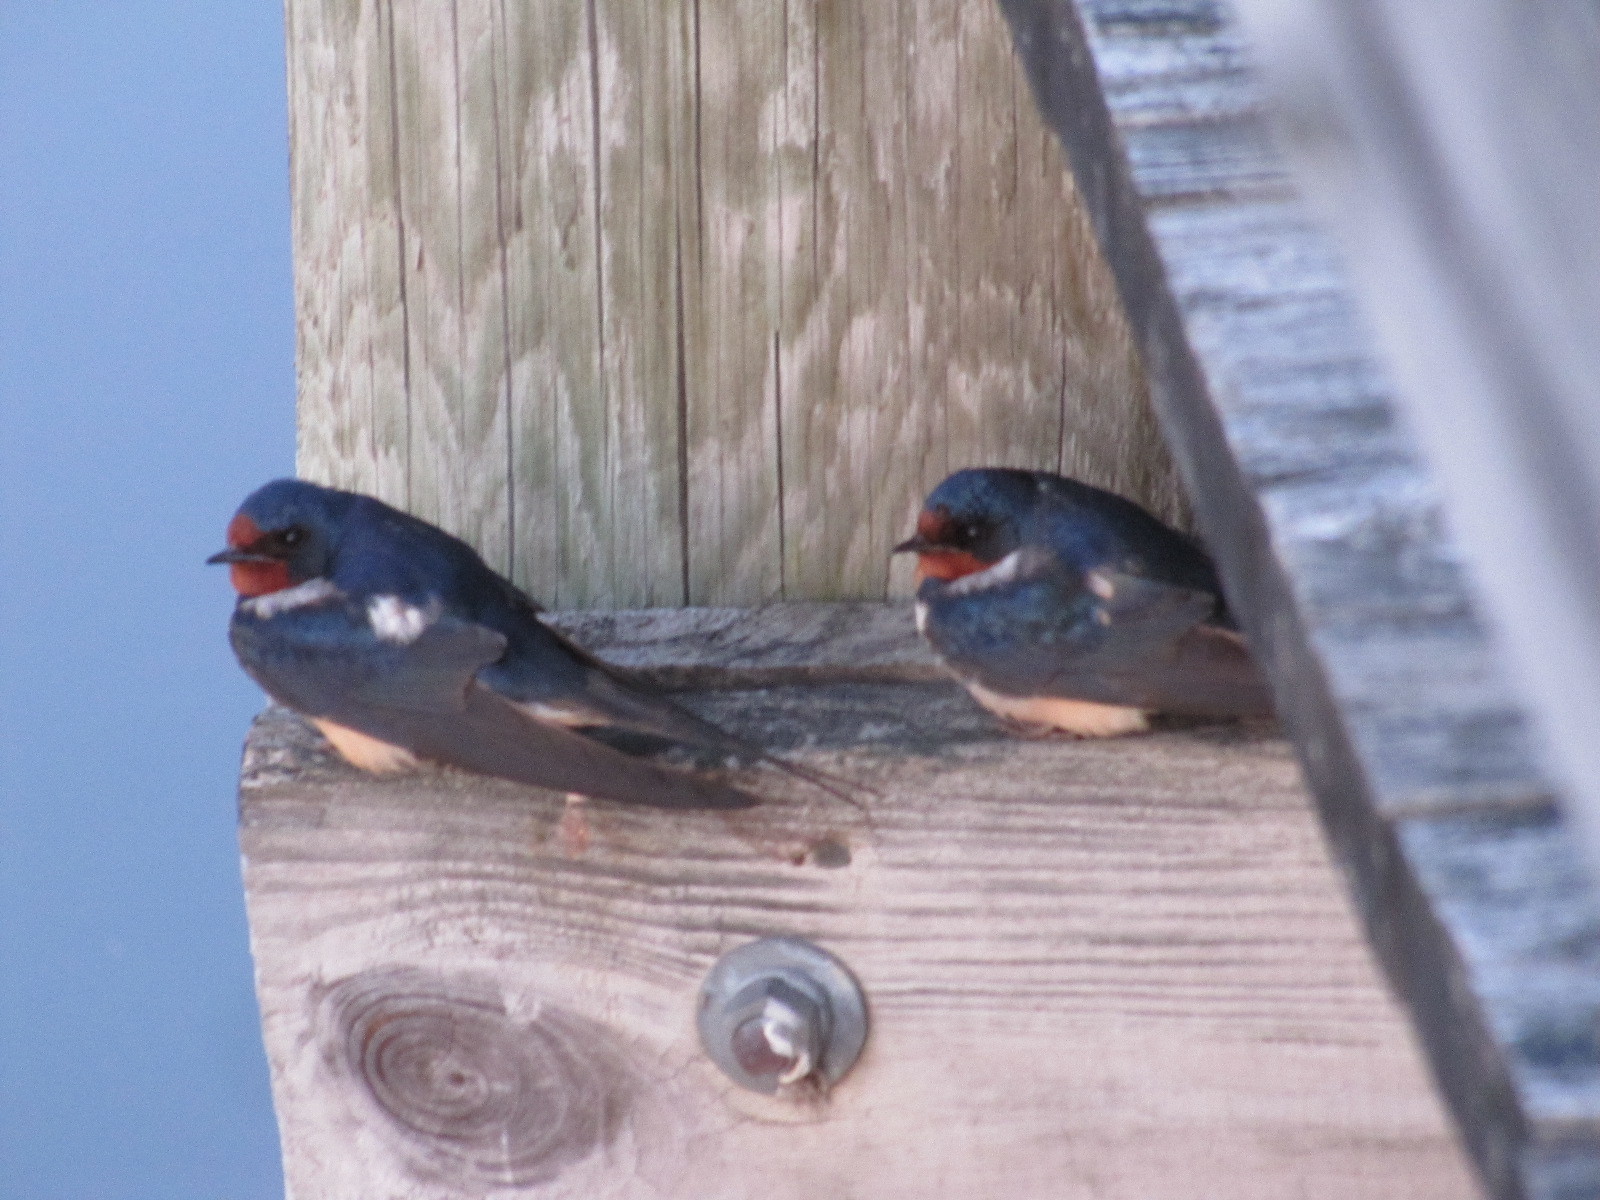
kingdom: Animalia
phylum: Chordata
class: Aves
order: Passeriformes
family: Hirundinidae
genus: Hirundo
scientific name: Hirundo rustica
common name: Barn swallow
